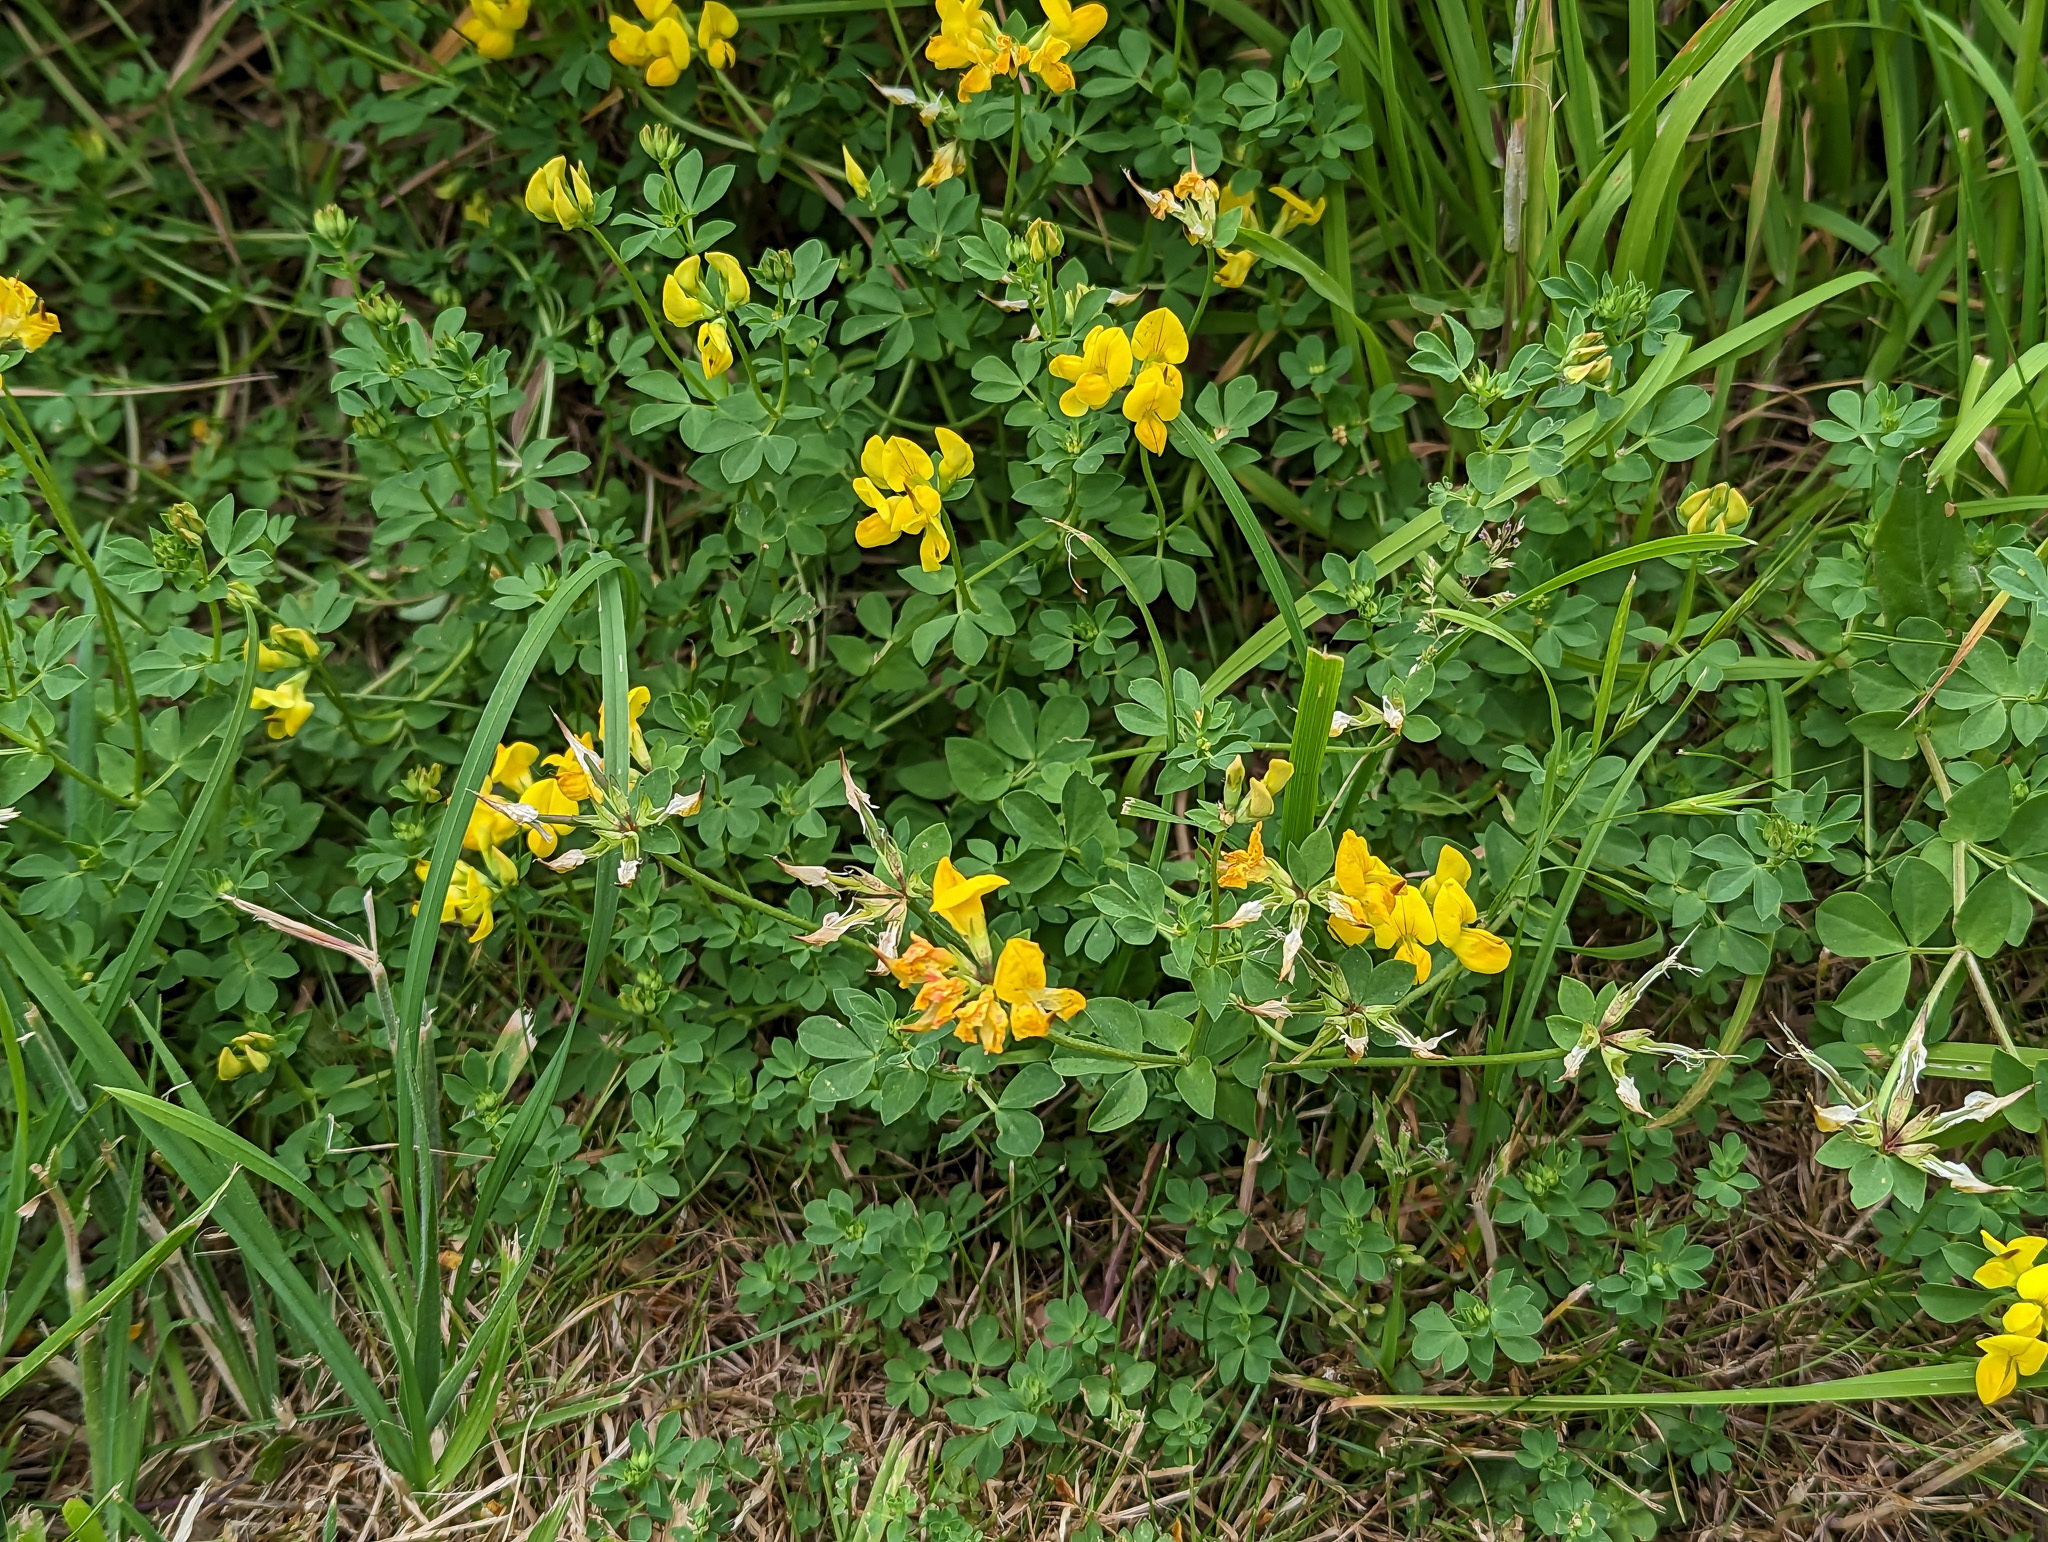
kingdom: Plantae
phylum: Tracheophyta
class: Magnoliopsida
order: Fabales
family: Fabaceae
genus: Lotus
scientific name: Lotus corniculatus
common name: Common bird's-foot-trefoil
